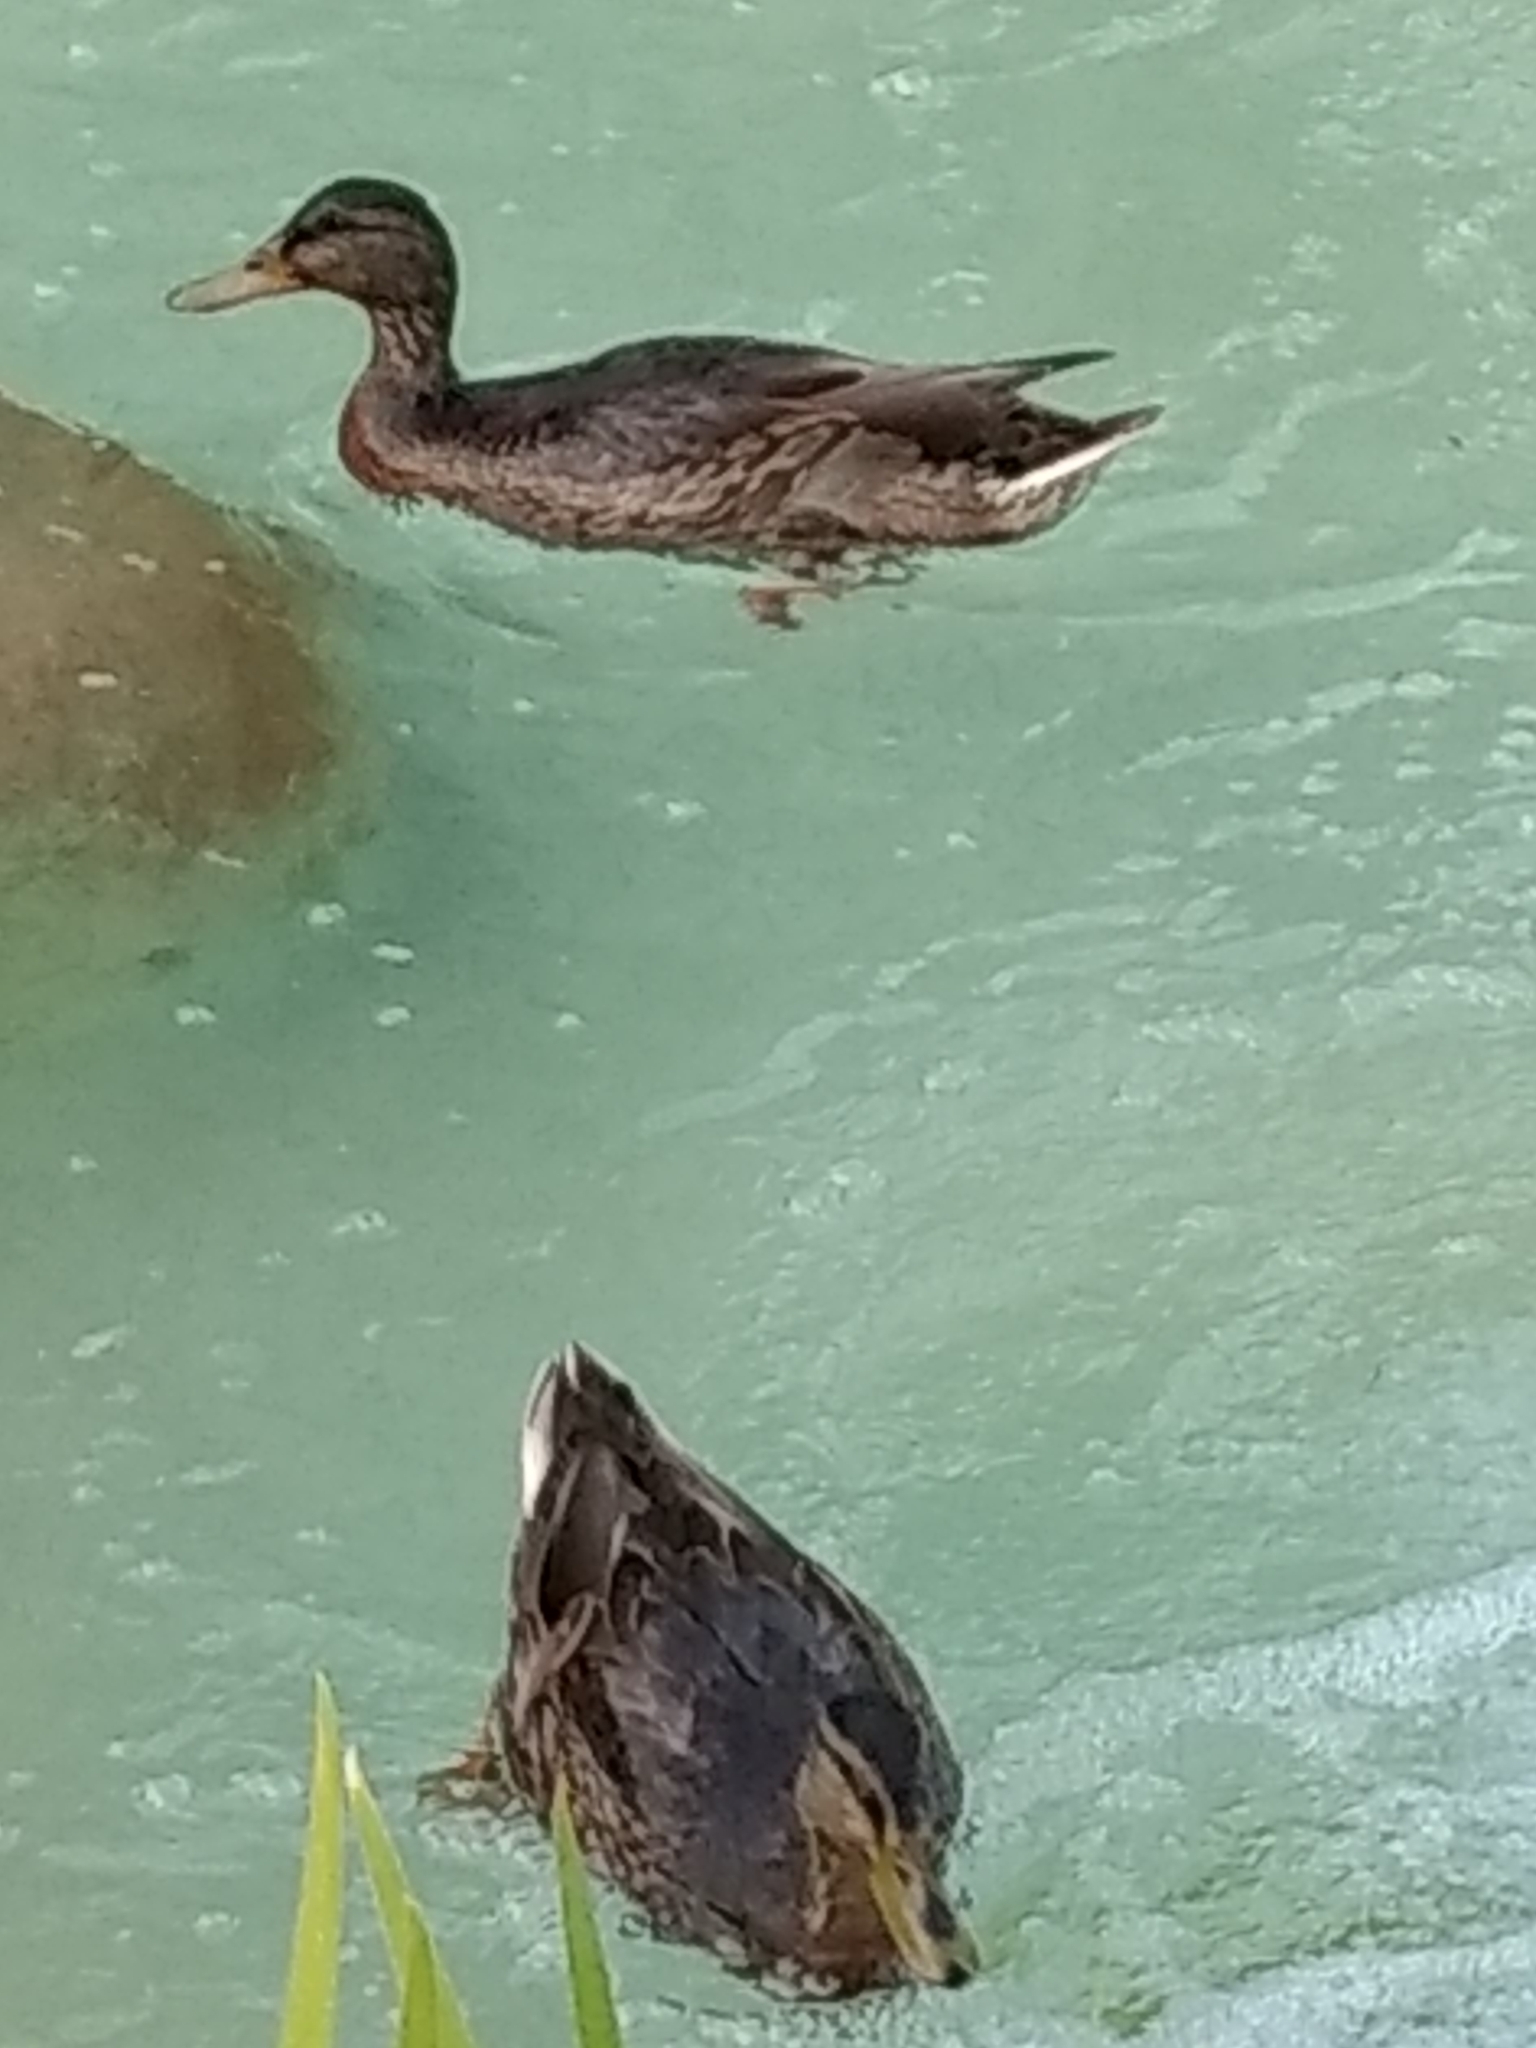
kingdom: Animalia
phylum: Chordata
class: Aves
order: Anseriformes
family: Anatidae
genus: Anas
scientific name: Anas platyrhynchos
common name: Mallard
